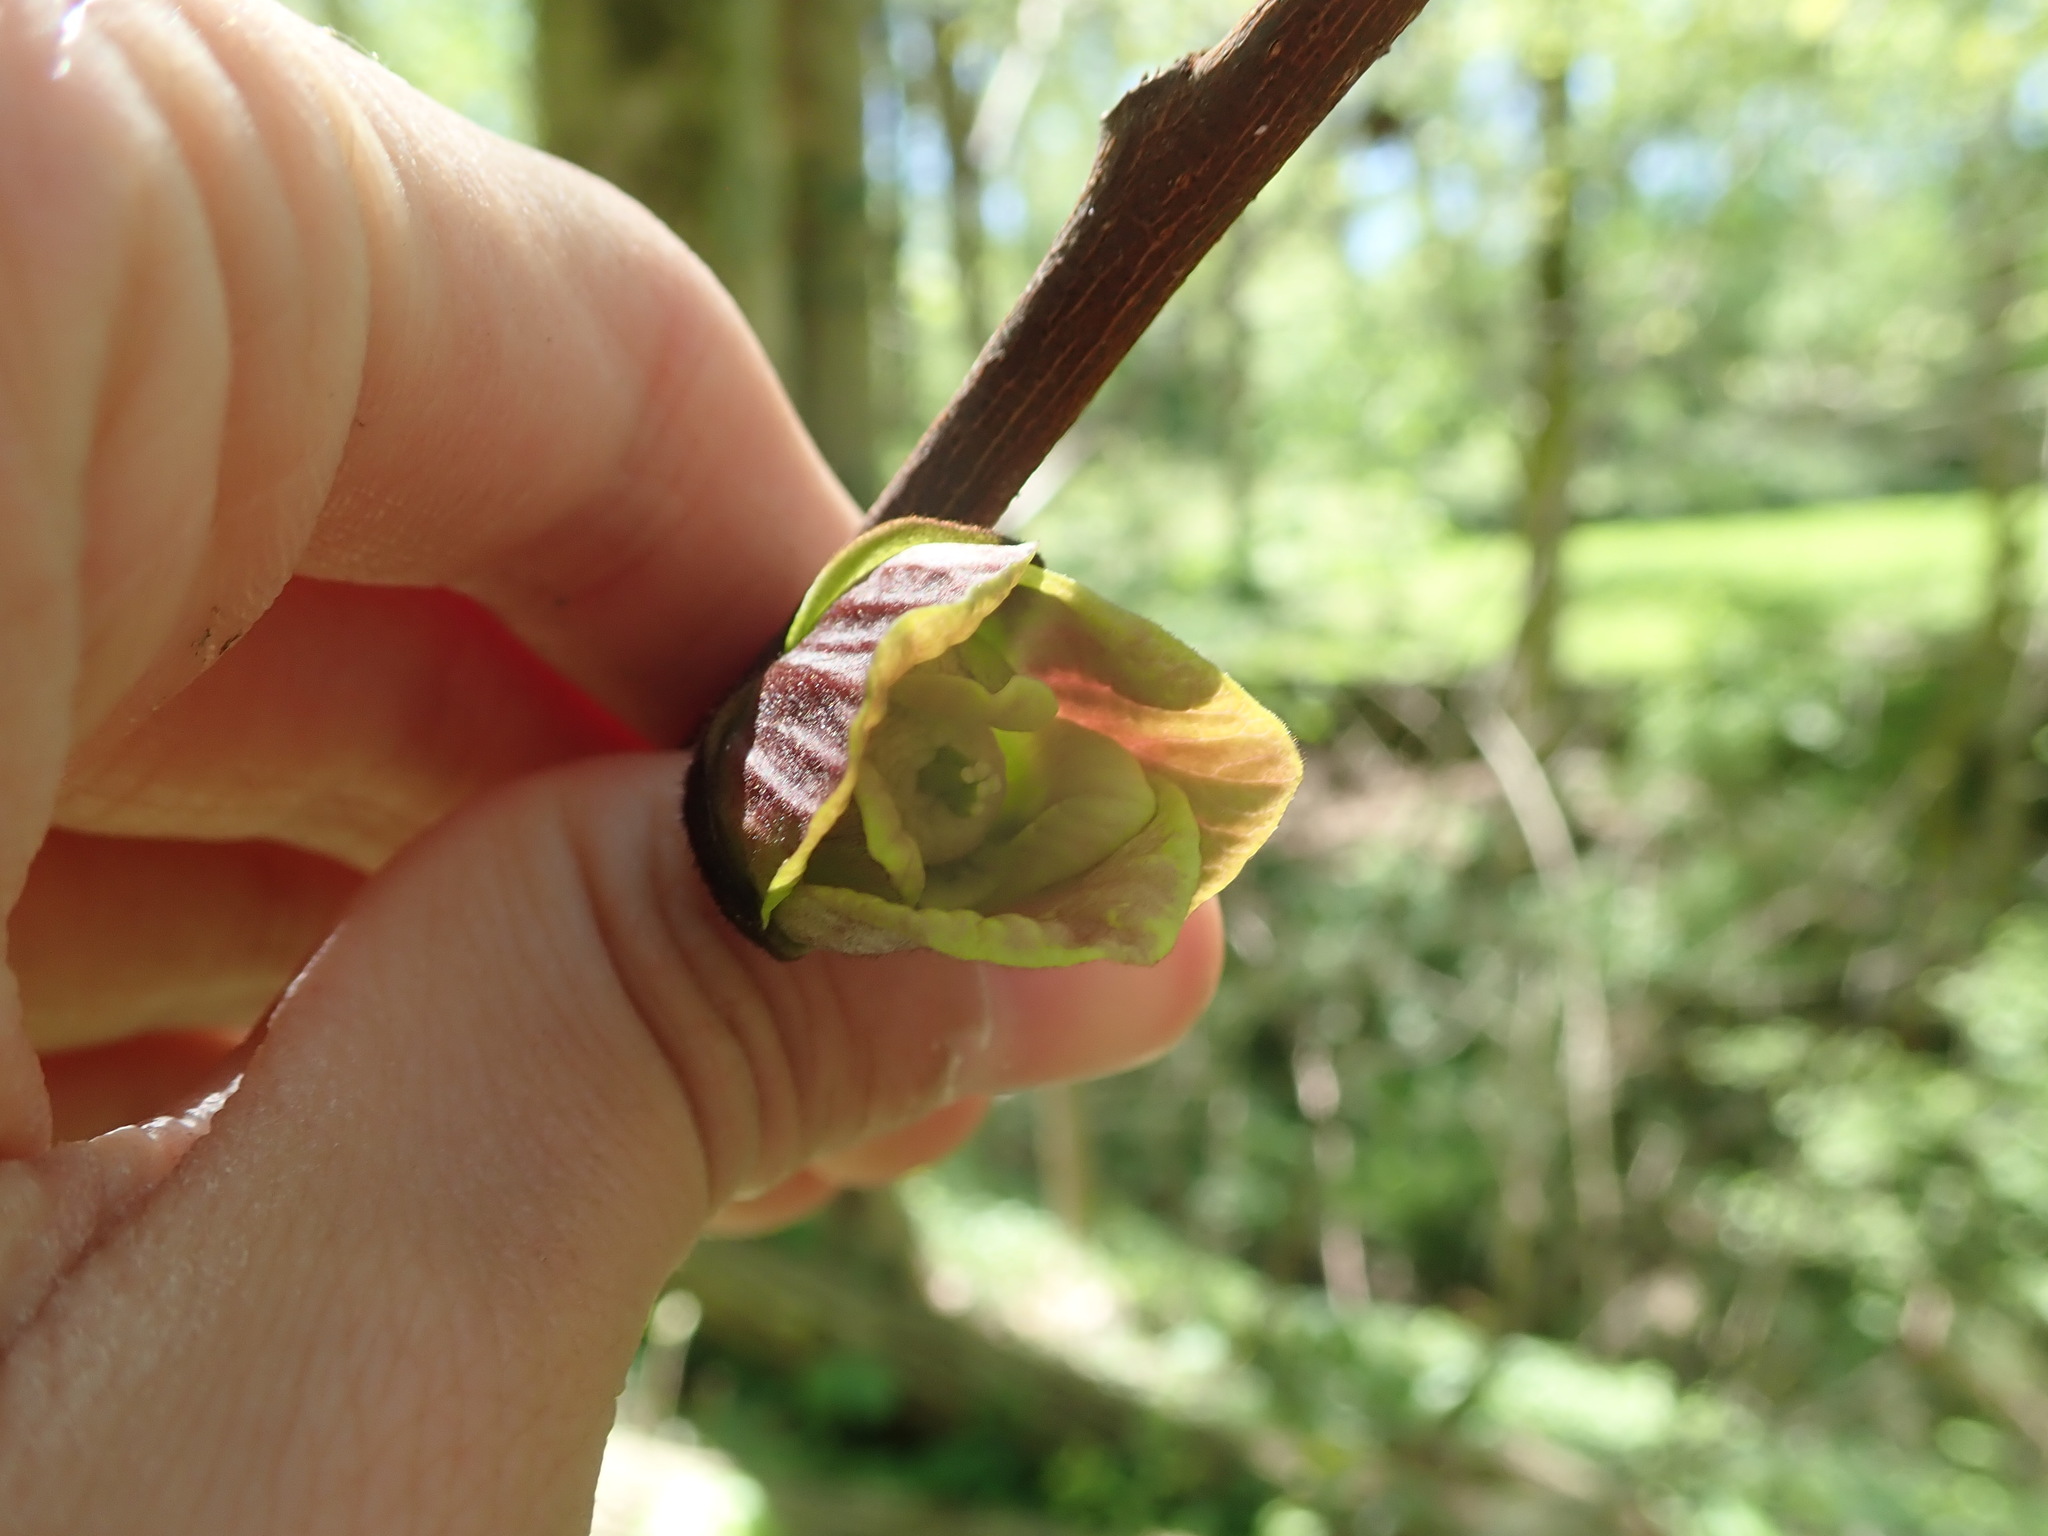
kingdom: Plantae
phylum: Tracheophyta
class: Magnoliopsida
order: Magnoliales
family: Annonaceae
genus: Asimina
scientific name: Asimina triloba
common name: Dog-banana
